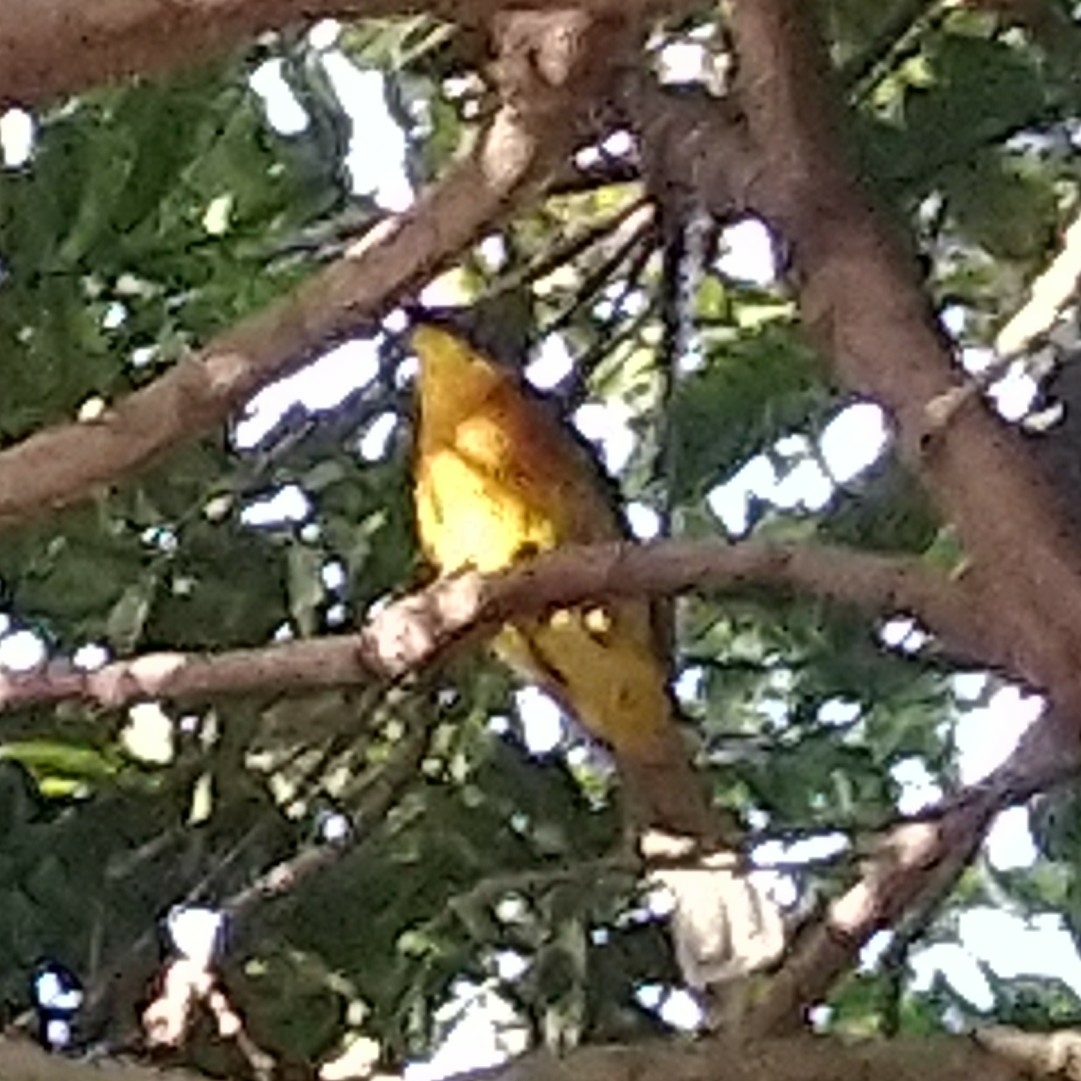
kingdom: Animalia
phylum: Chordata
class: Aves
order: Passeriformes
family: Malaconotidae
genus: Malaconotus
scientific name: Malaconotus blanchoti
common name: Grey-headed bushshrike
